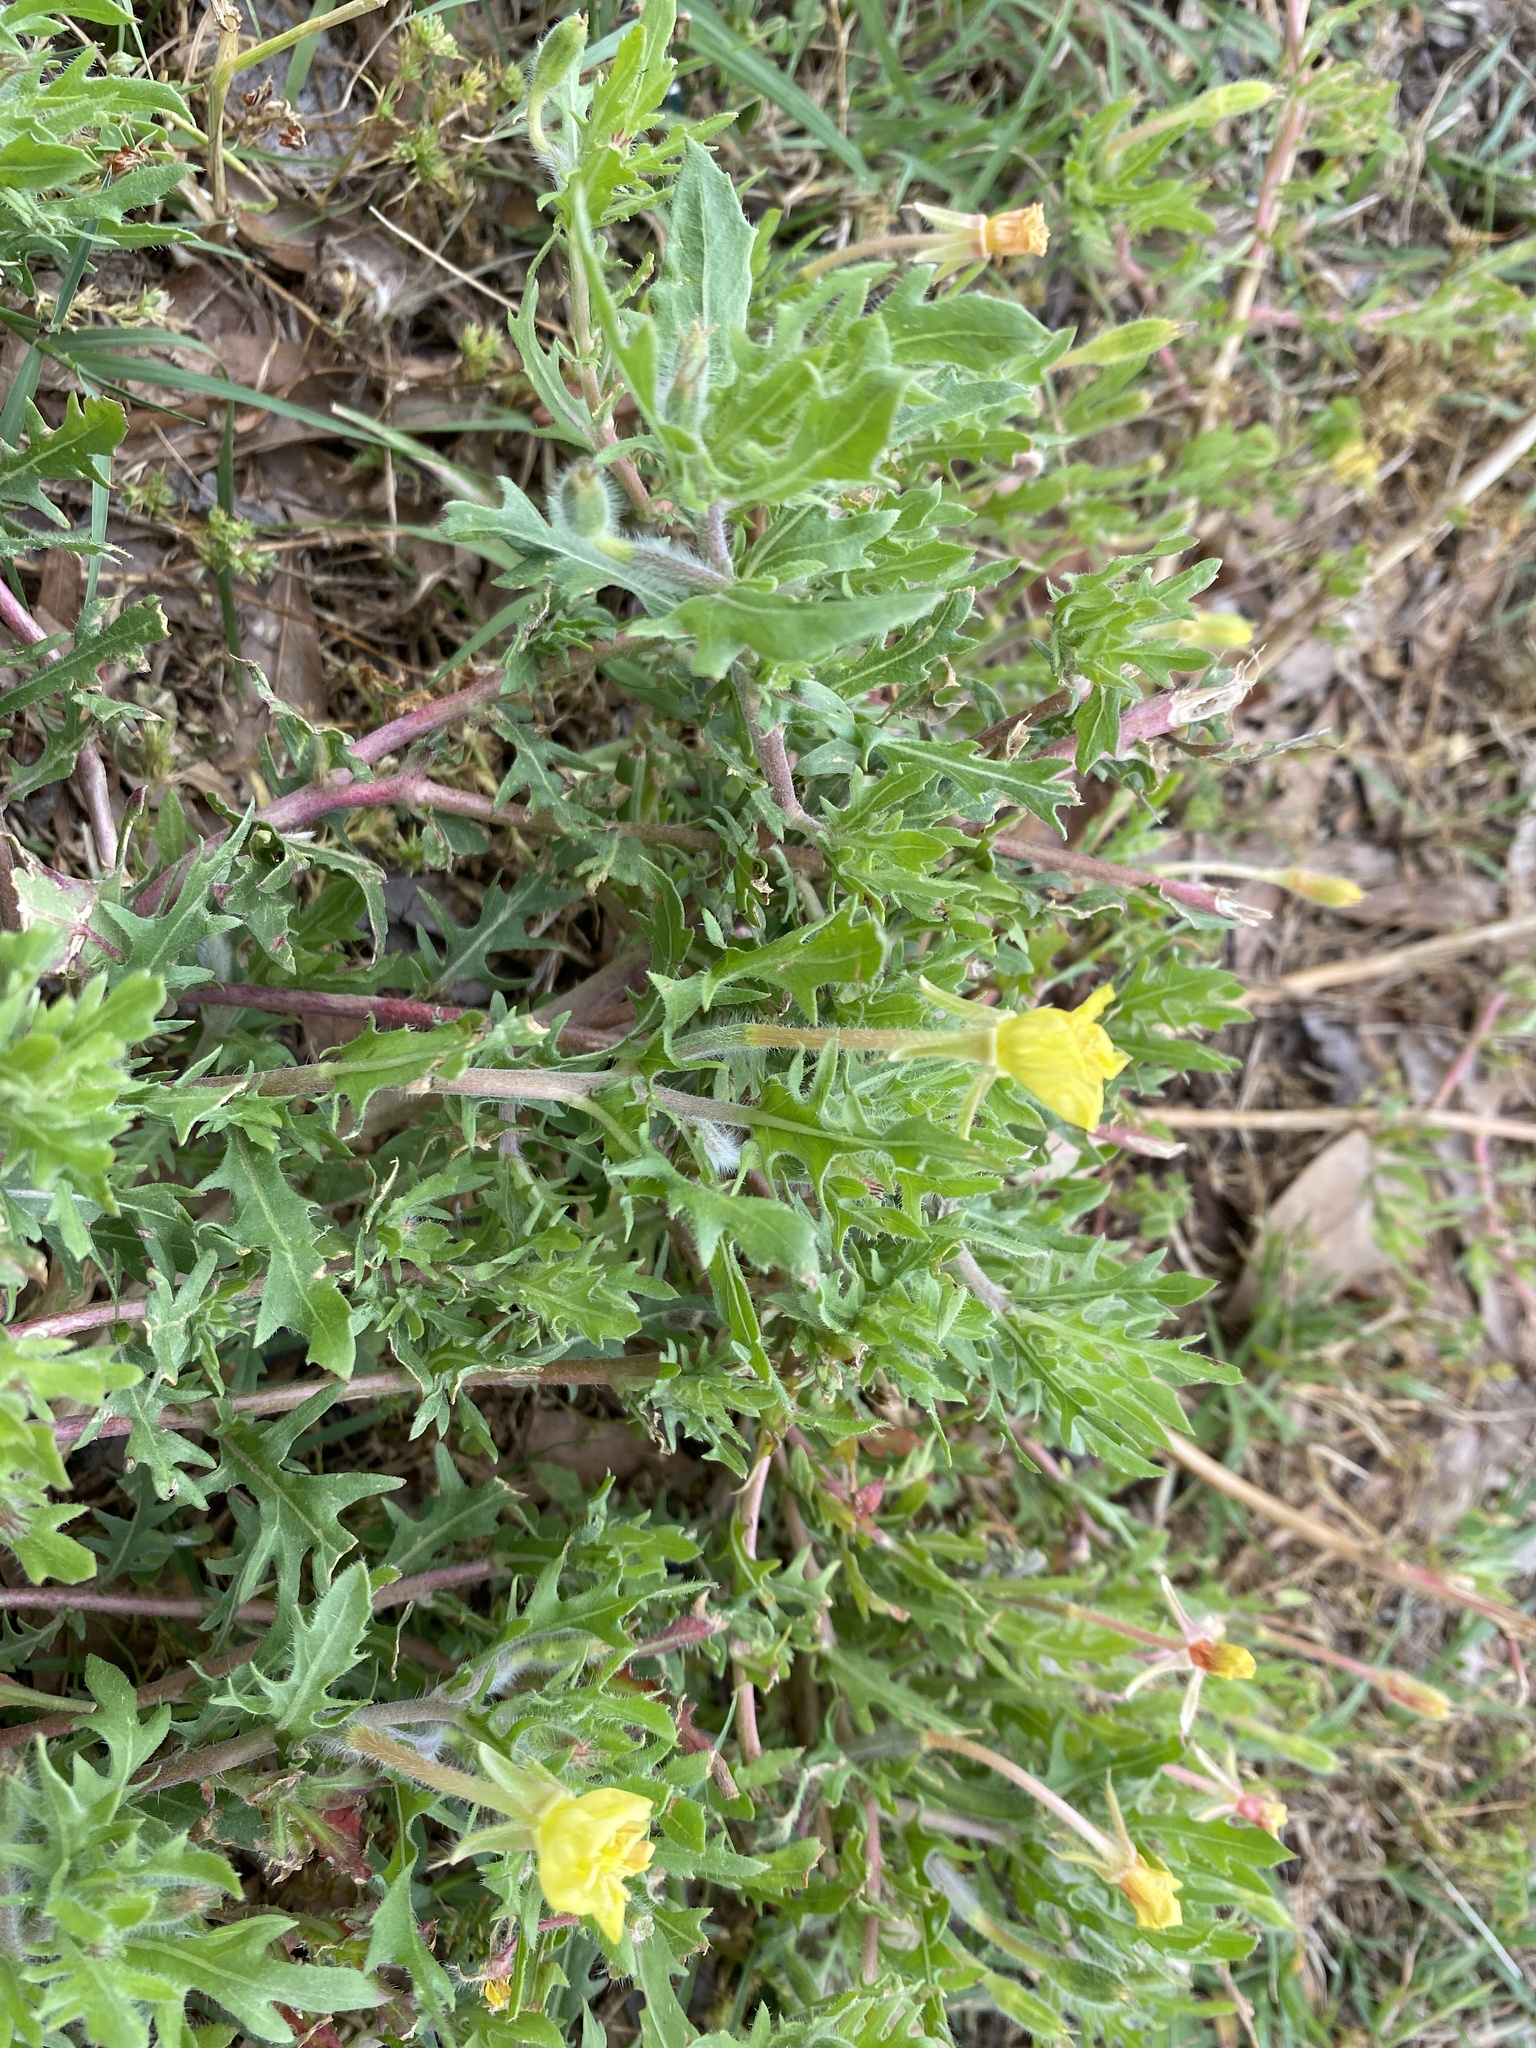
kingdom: Plantae
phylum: Tracheophyta
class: Magnoliopsida
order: Myrtales
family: Onagraceae
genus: Oenothera
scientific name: Oenothera laciniata
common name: Cut-leaved evening-primrose
